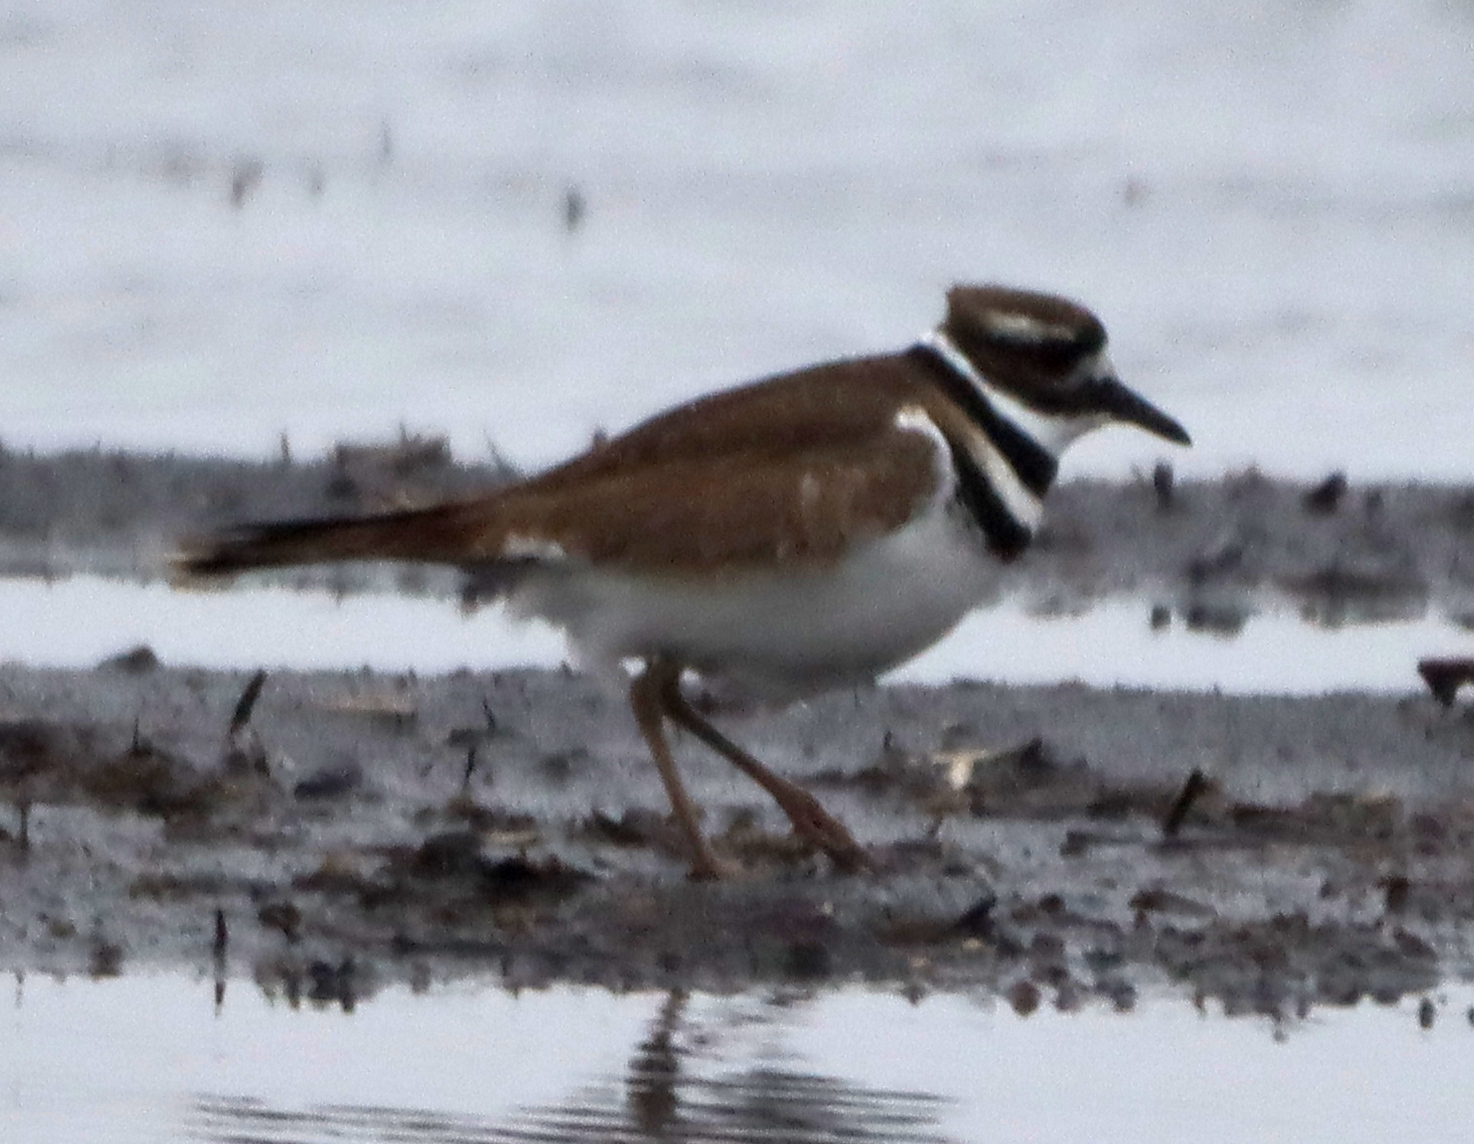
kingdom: Animalia
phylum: Chordata
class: Aves
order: Charadriiformes
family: Charadriidae
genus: Charadrius
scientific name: Charadrius vociferus
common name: Killdeer
